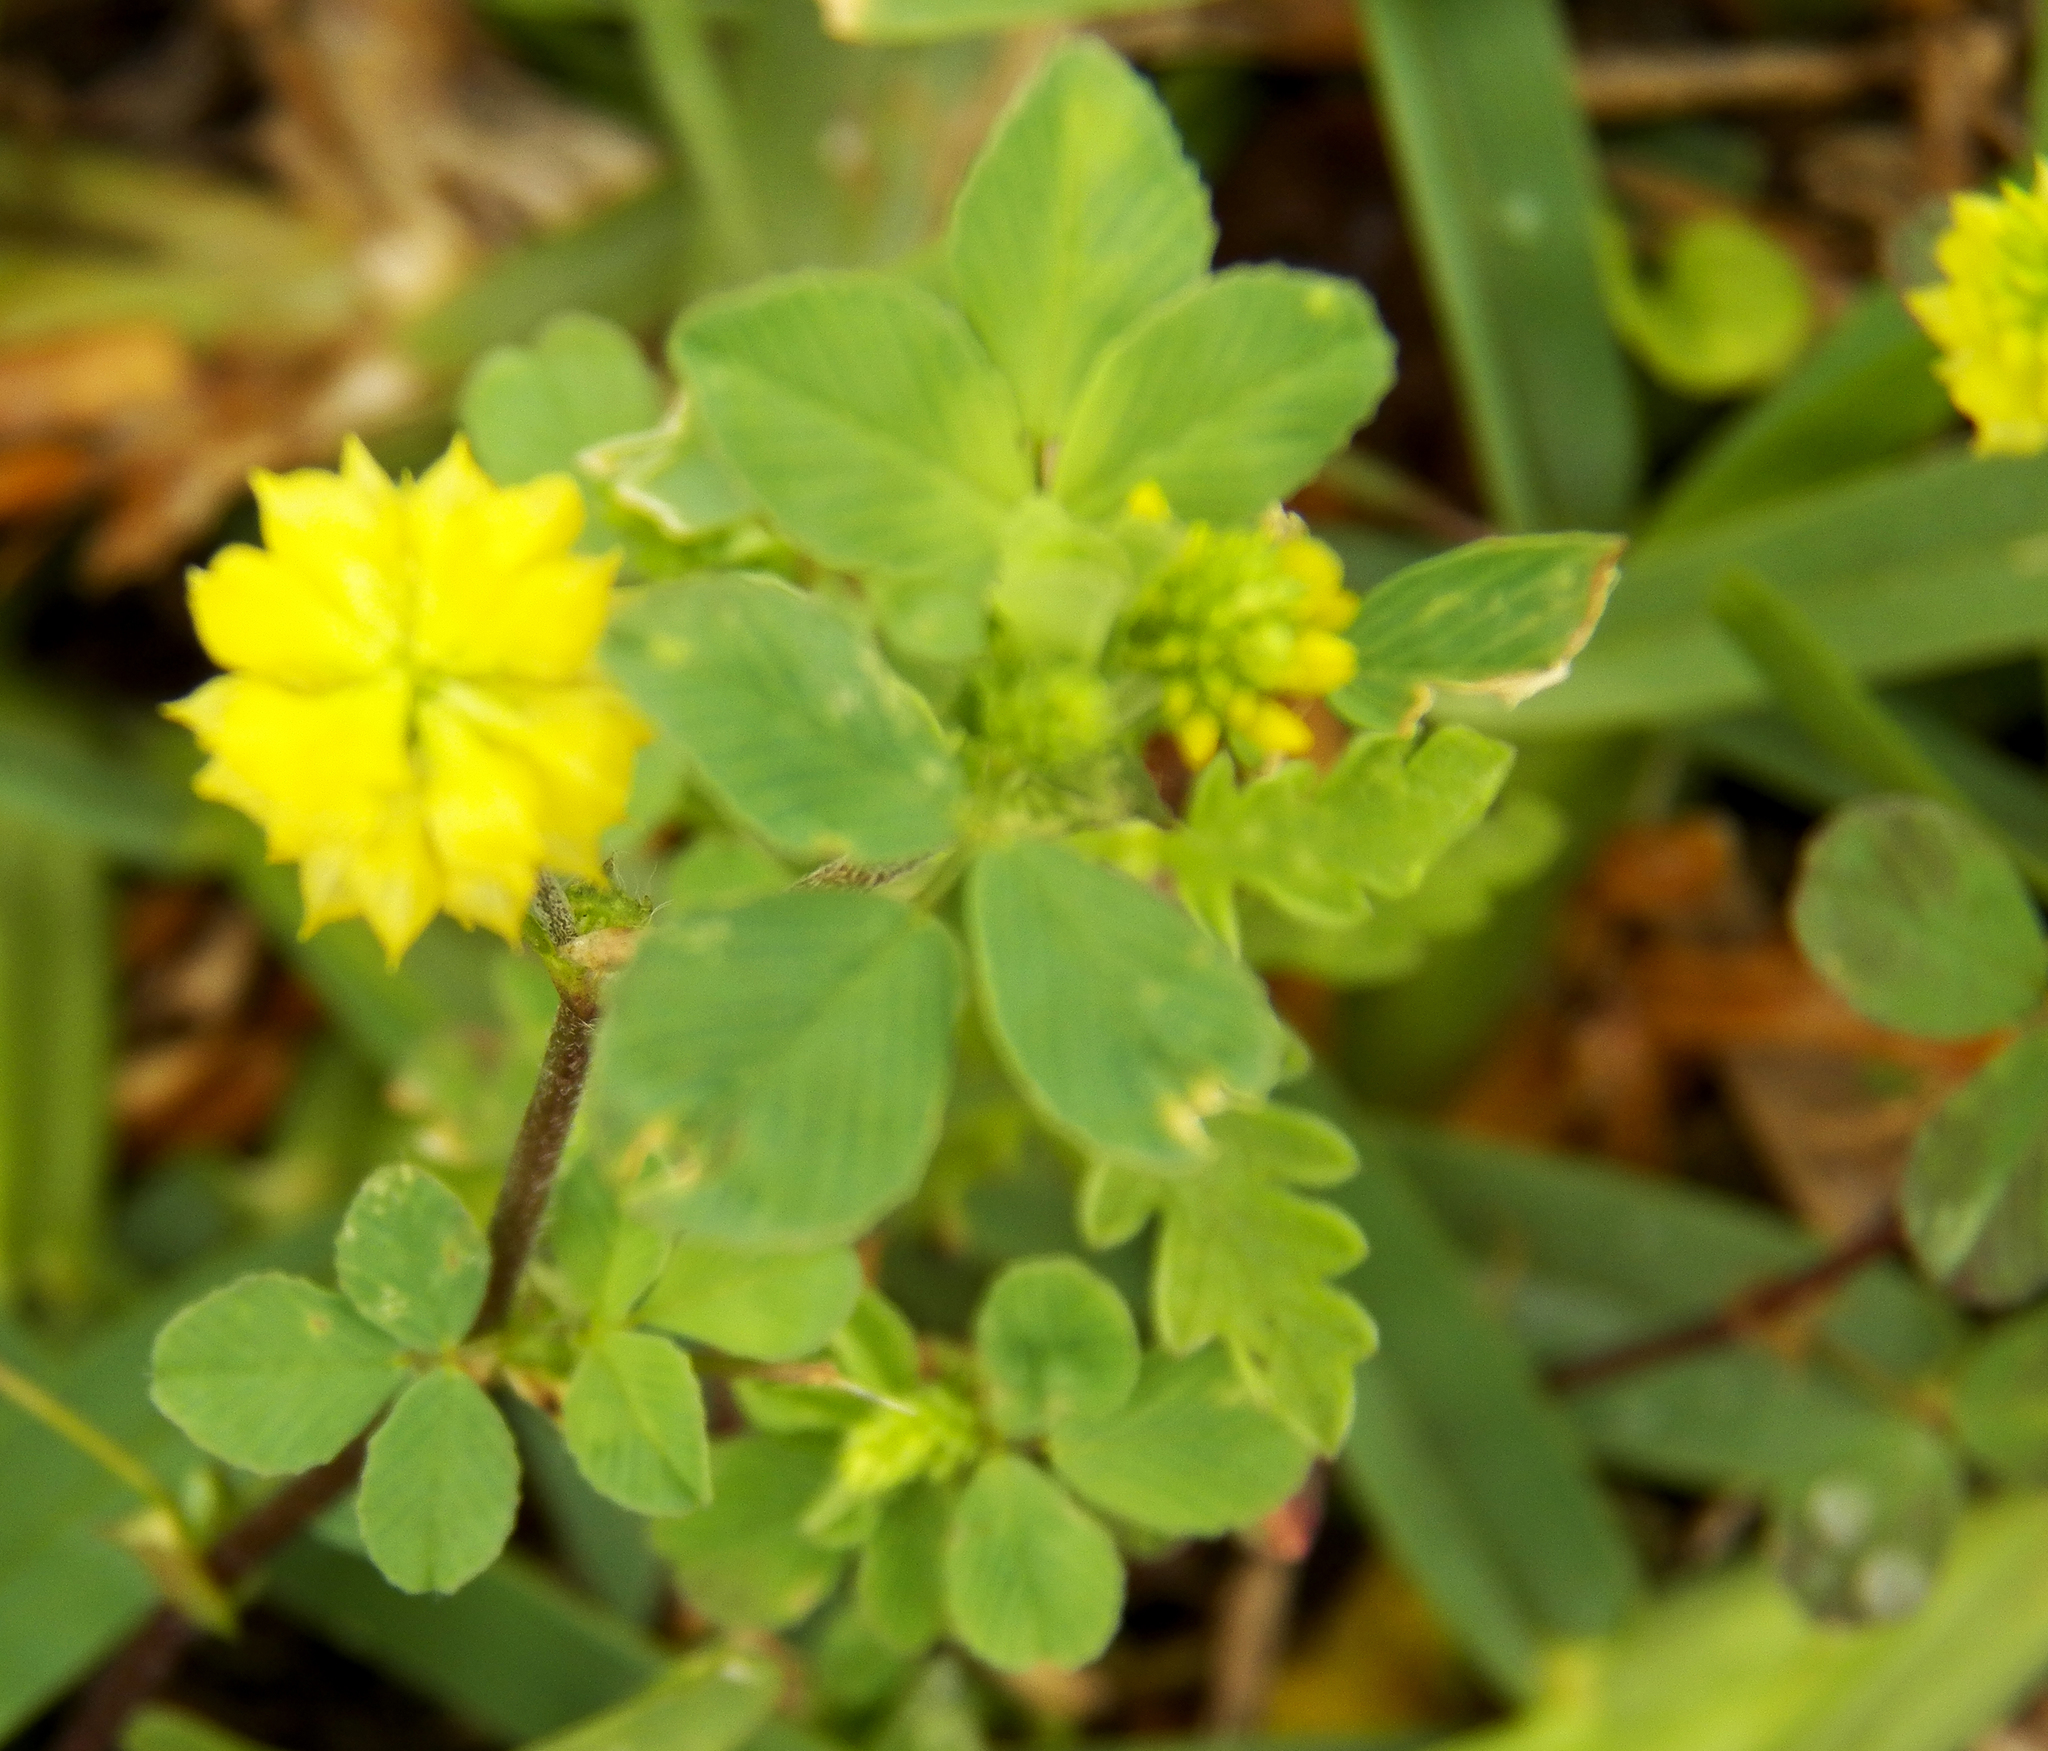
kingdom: Plantae
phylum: Tracheophyta
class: Magnoliopsida
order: Fabales
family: Fabaceae
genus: Trifolium
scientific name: Trifolium campestre
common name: Field clover
